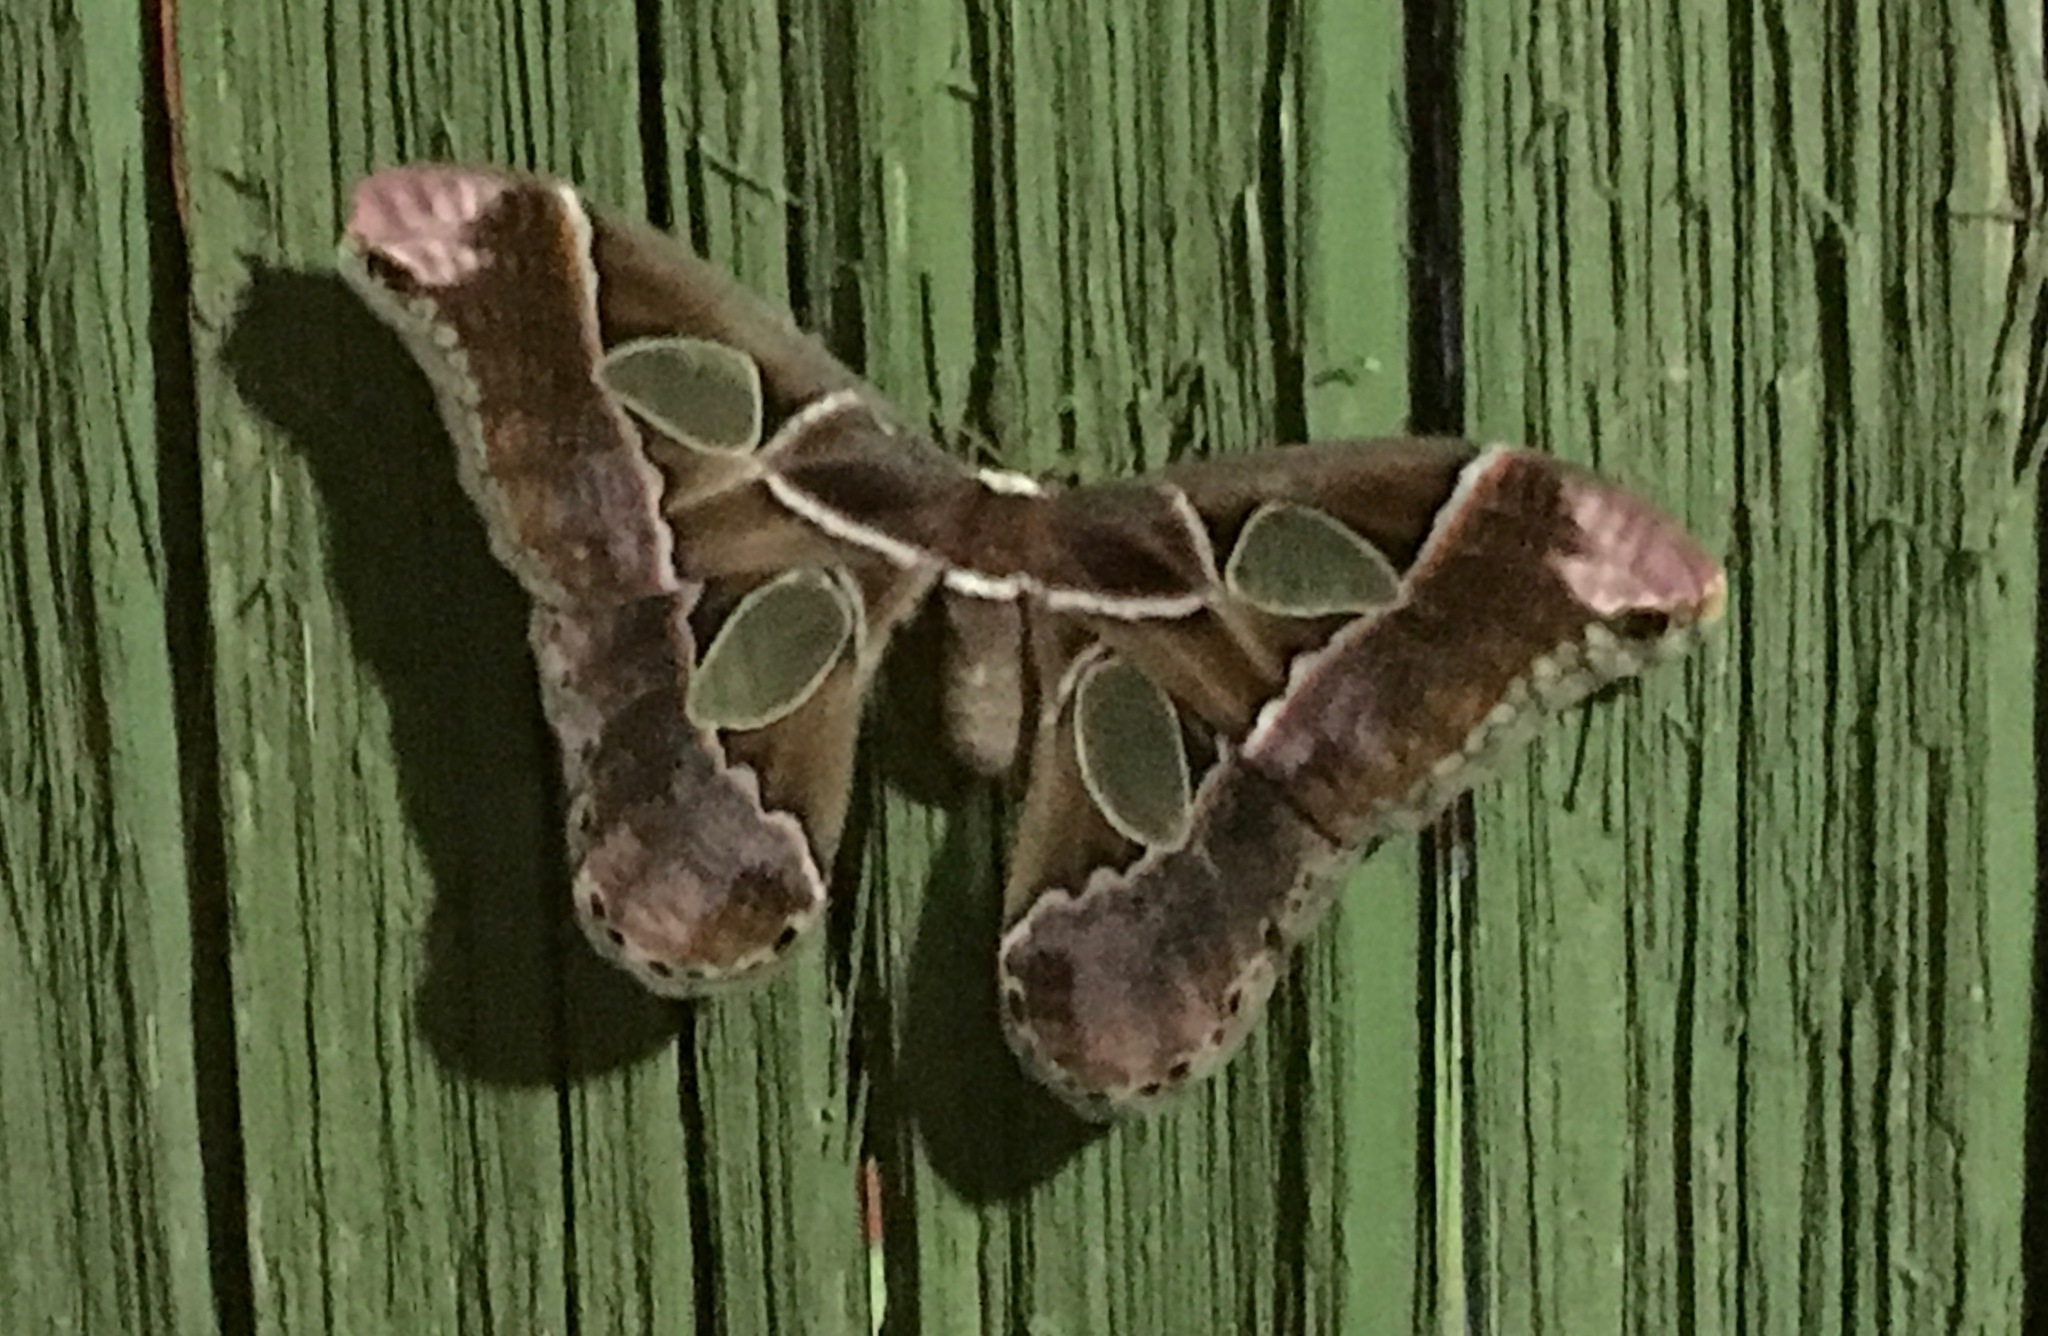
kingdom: Animalia
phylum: Arthropoda
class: Insecta
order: Lepidoptera
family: Saturniidae
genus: Rothschildia
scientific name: Rothschildia lebeau
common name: Lebeau's rothschildia
